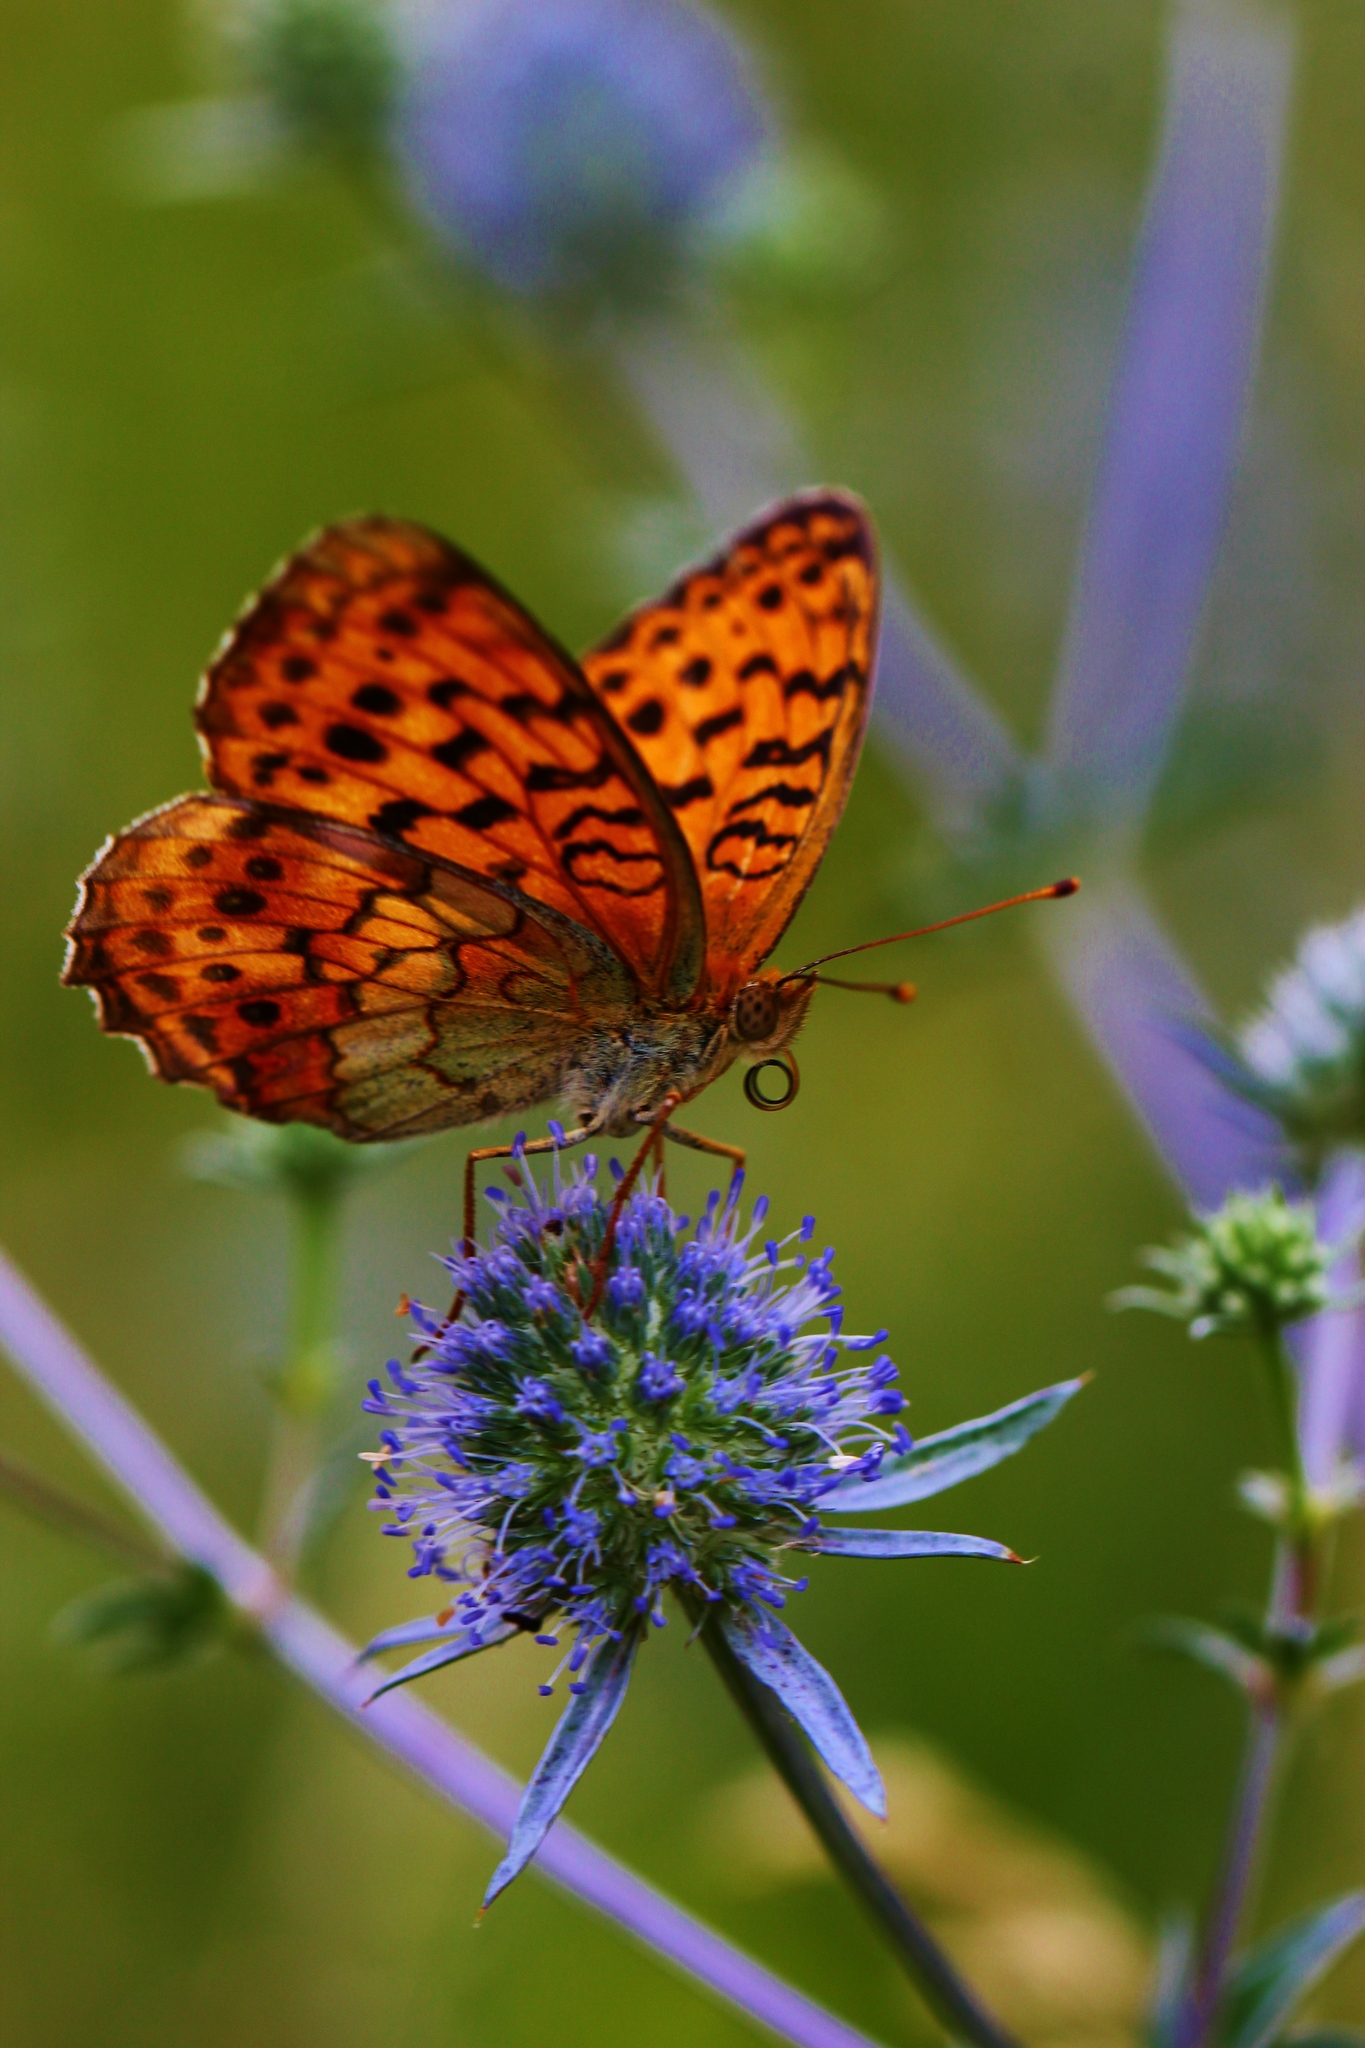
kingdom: Animalia
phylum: Arthropoda
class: Insecta
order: Lepidoptera
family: Nymphalidae
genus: Brenthis
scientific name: Brenthis daphne
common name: Marbled fritillary
